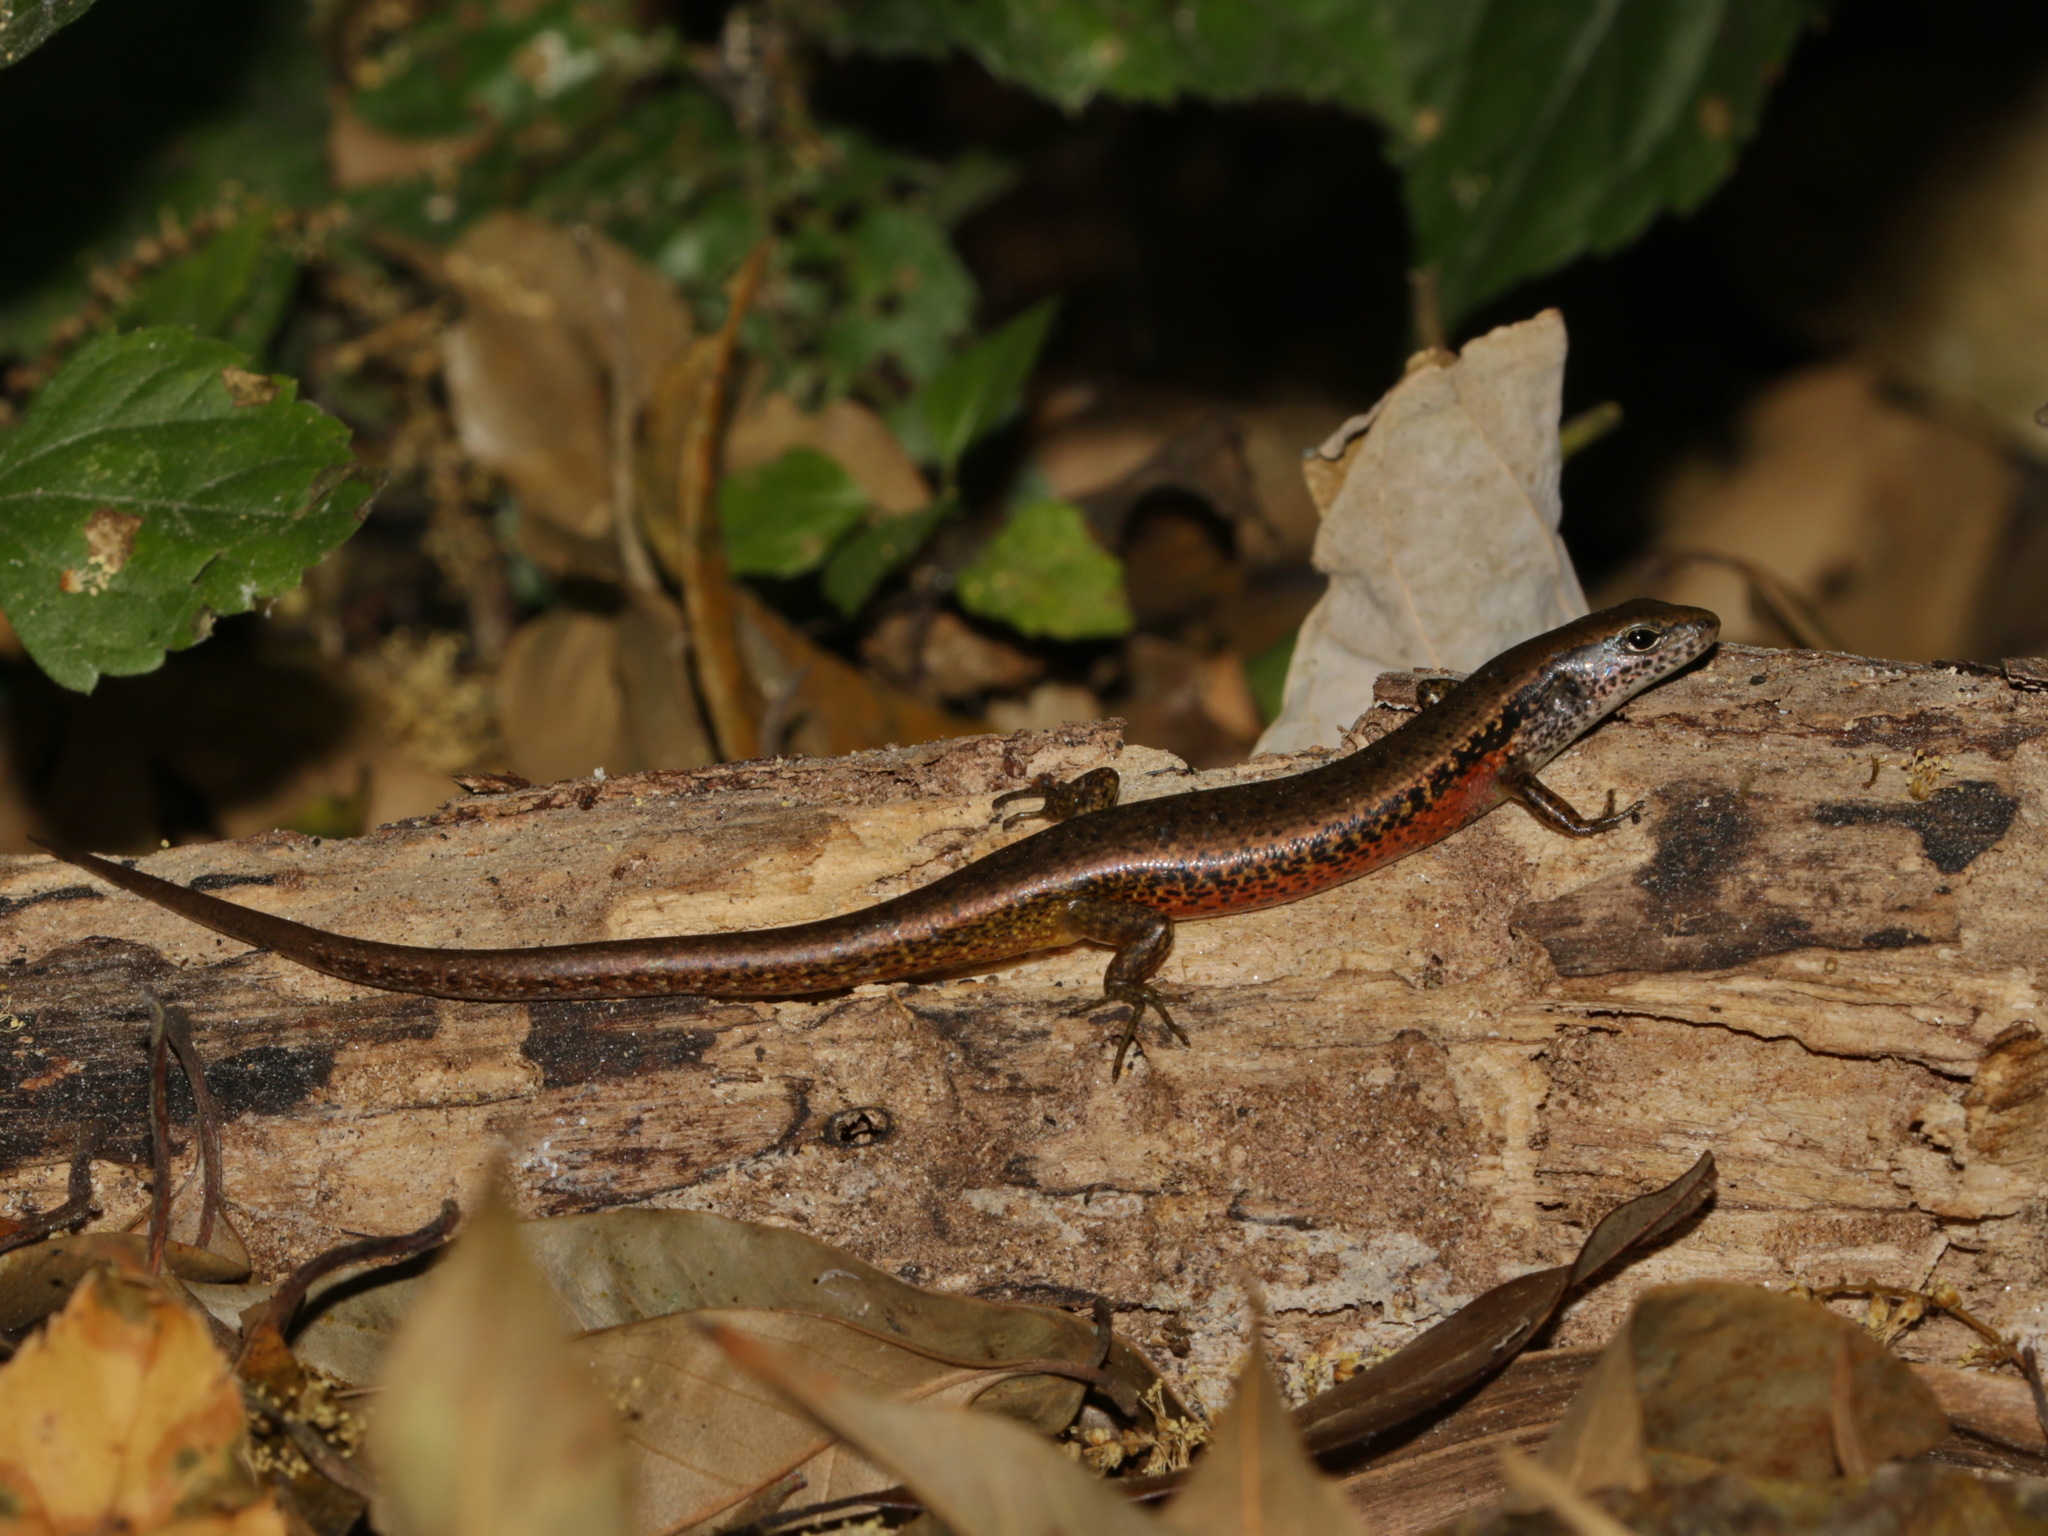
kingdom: Animalia
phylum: Chordata
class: Squamata
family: Scincidae
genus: Scincella
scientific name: Scincella reevesii
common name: Reeves’ smooth gecko
